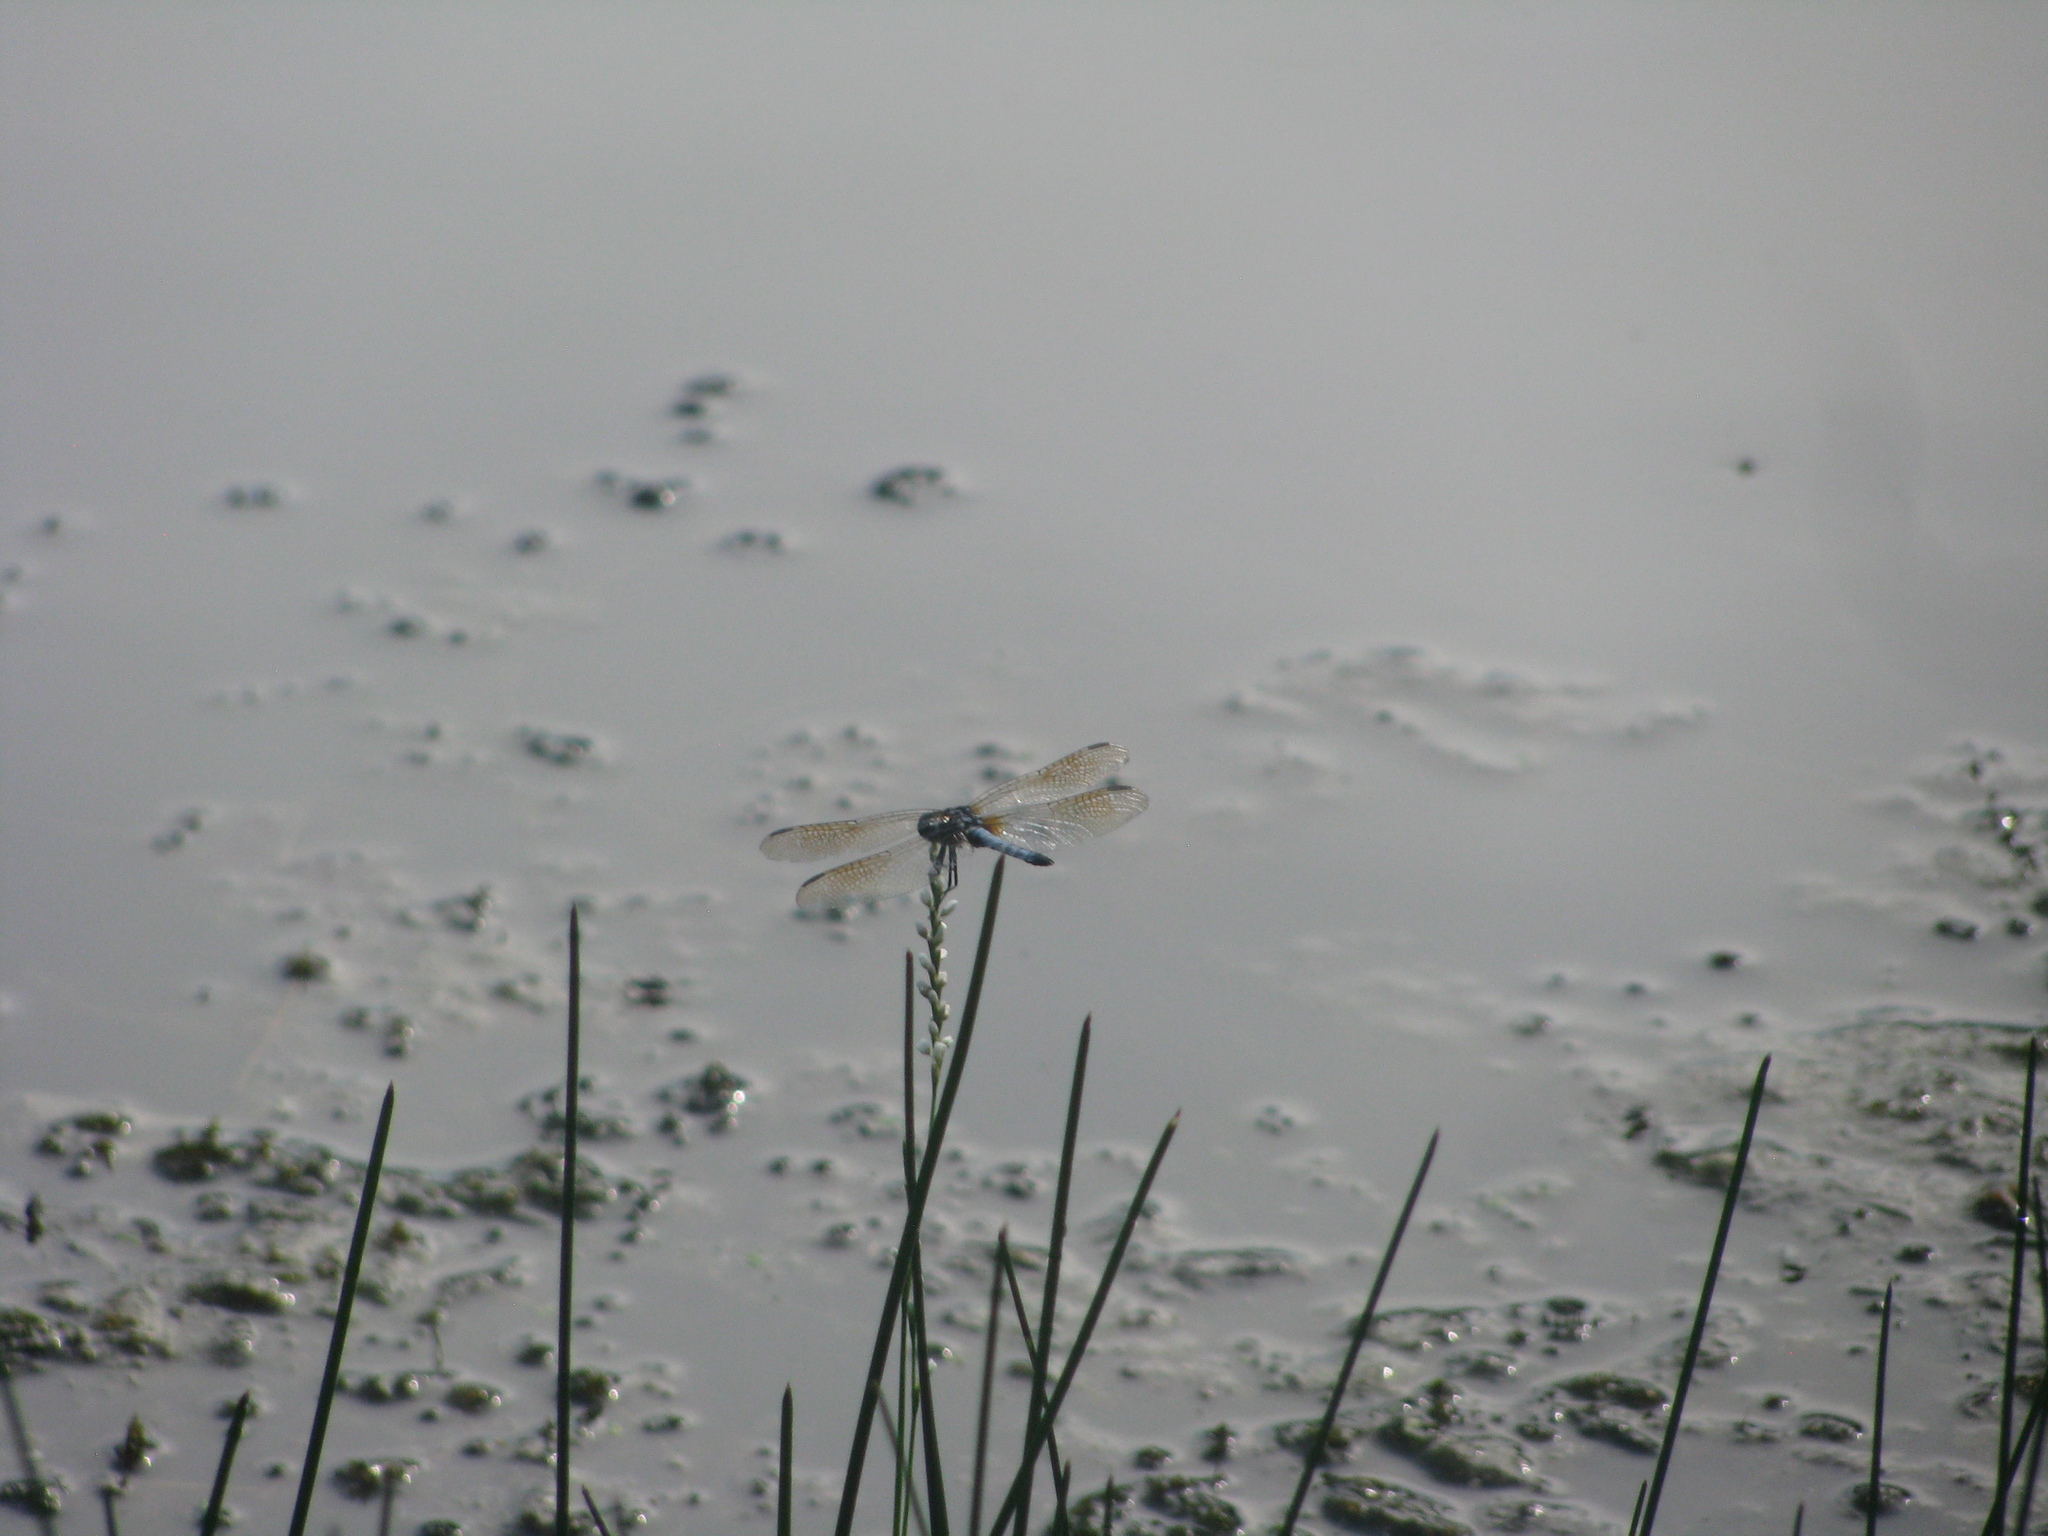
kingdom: Animalia
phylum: Arthropoda
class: Insecta
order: Odonata
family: Libellulidae
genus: Pachydiplax
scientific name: Pachydiplax longipennis
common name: Blue dasher
